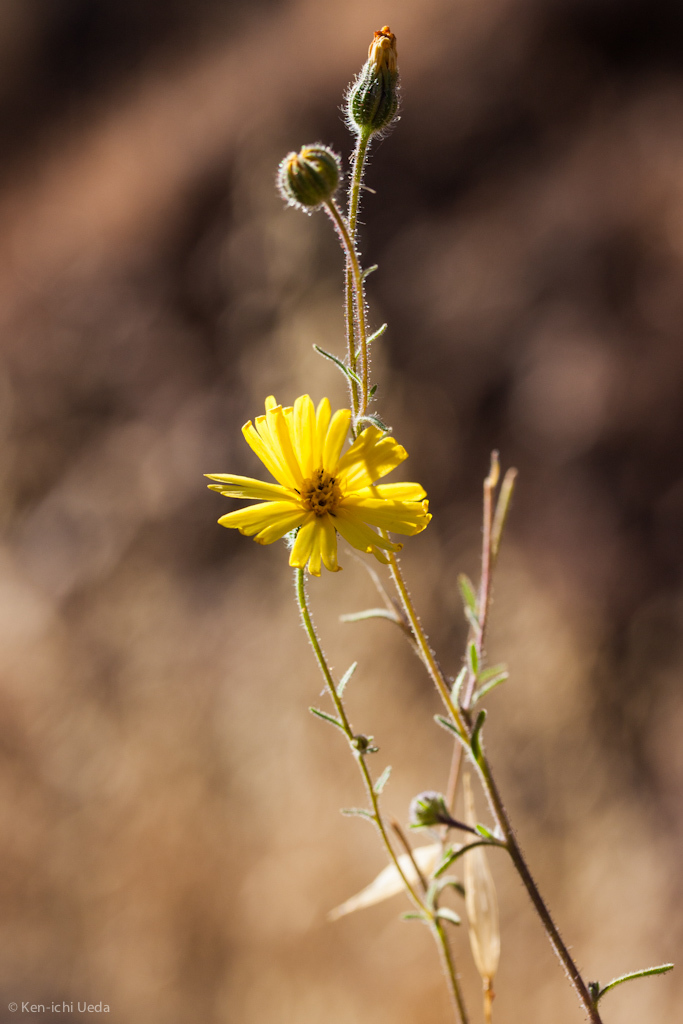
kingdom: Plantae
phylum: Tracheophyta
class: Magnoliopsida
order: Asterales
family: Asteraceae
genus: Madia
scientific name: Madia elegans
